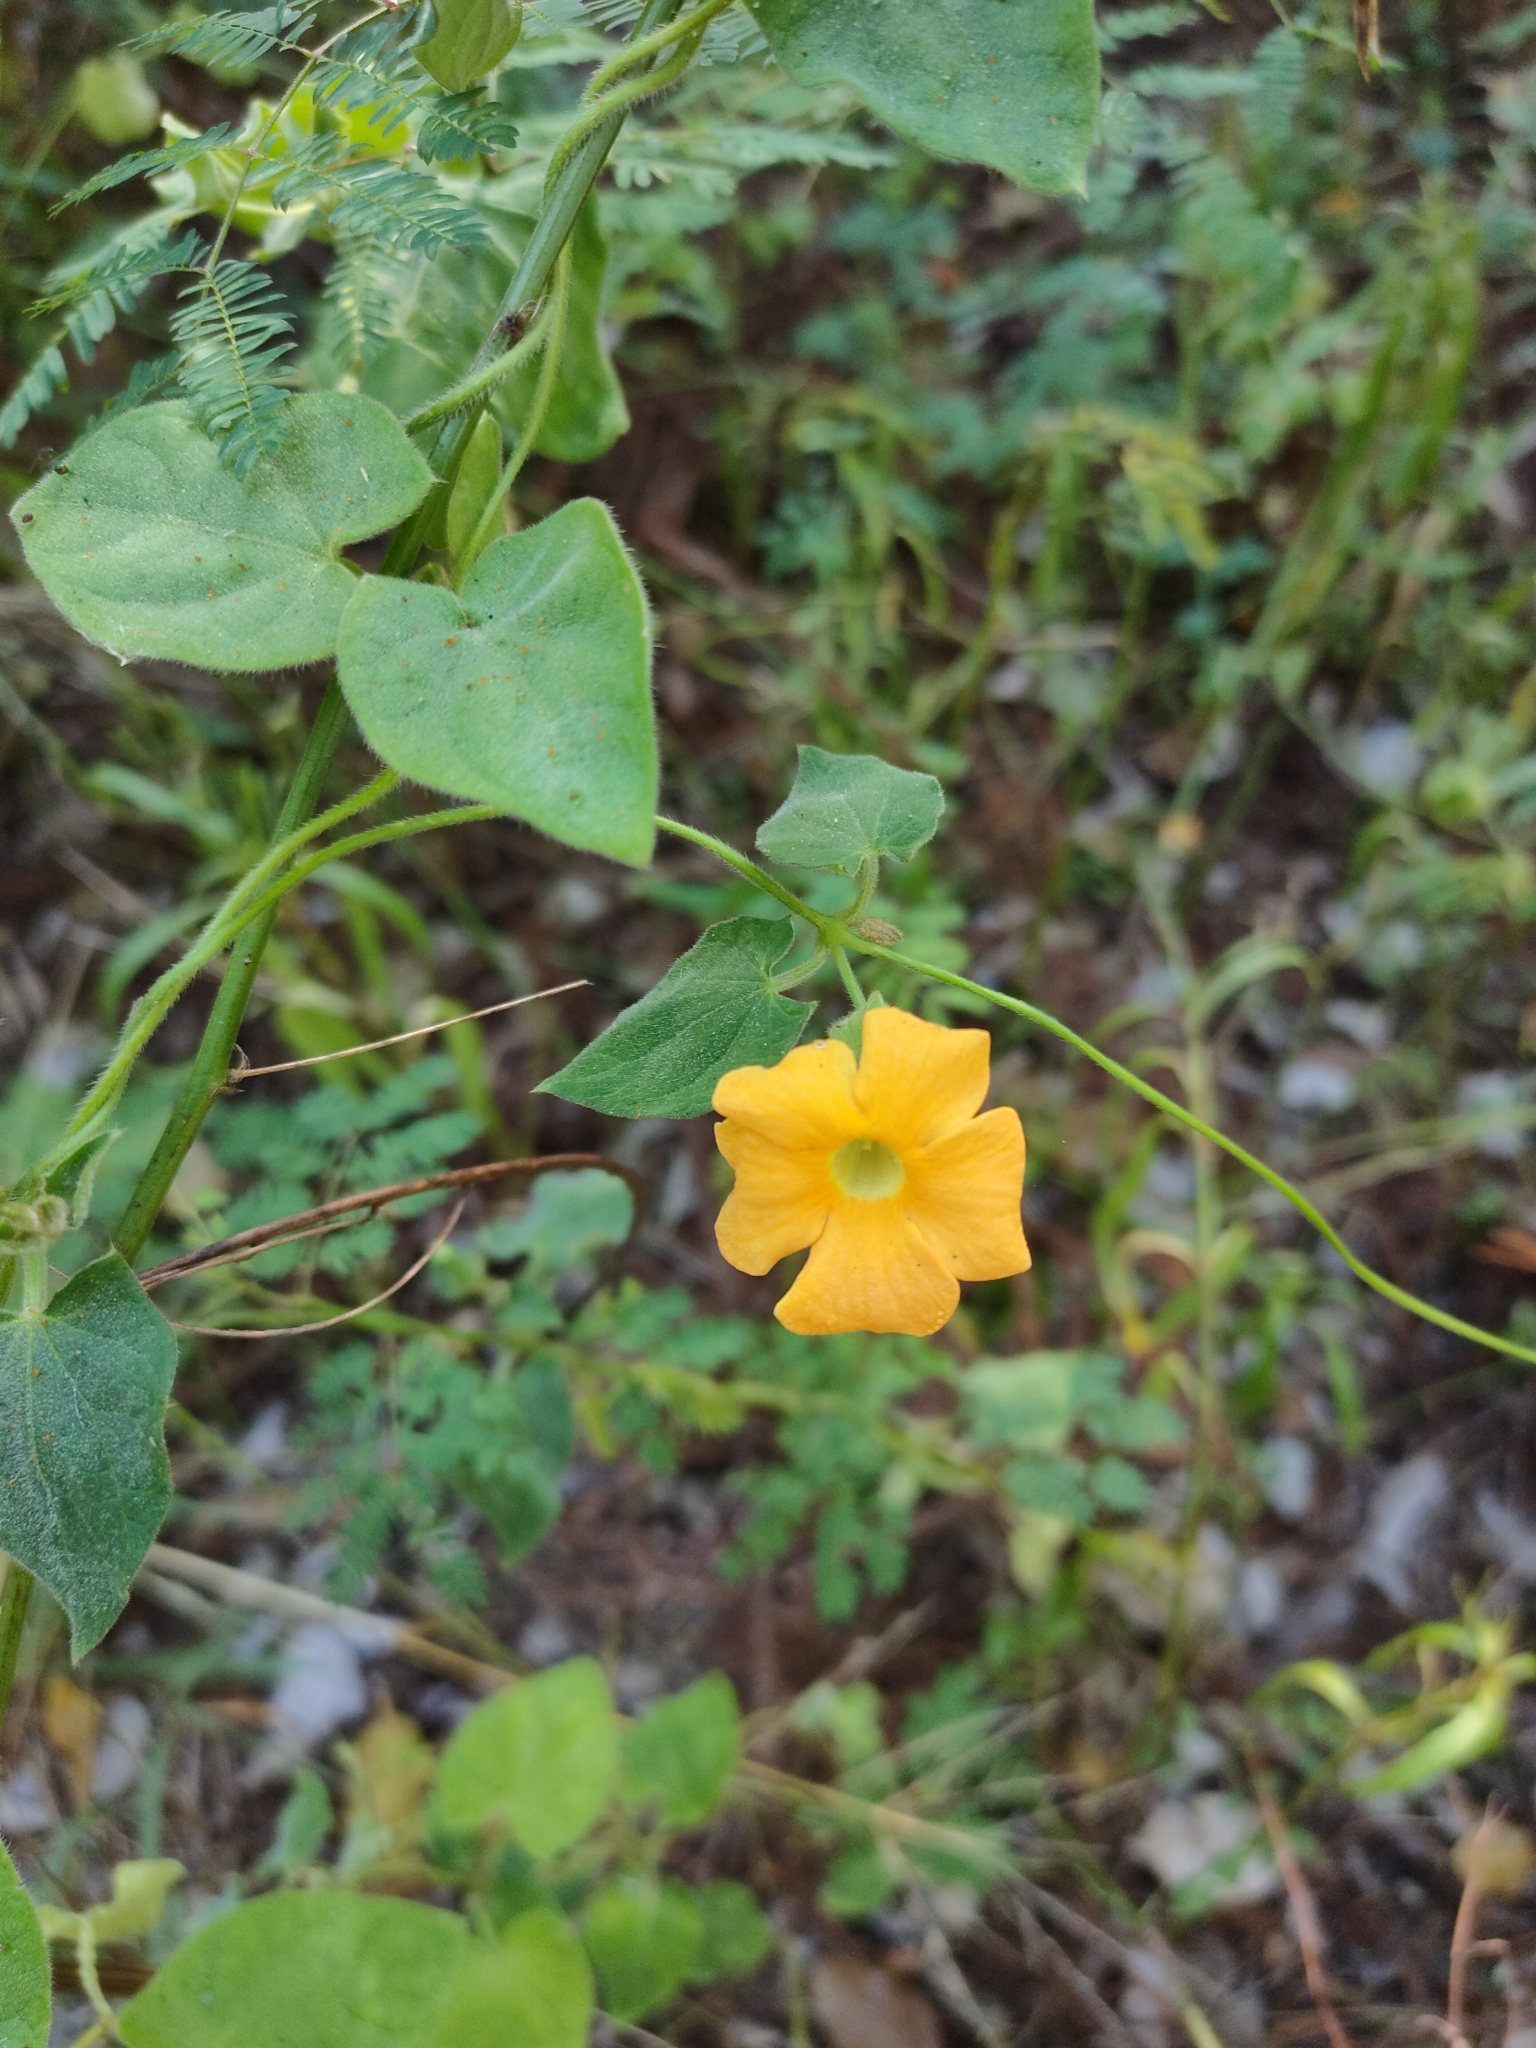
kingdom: Plantae
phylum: Tracheophyta
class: Magnoliopsida
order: Lamiales
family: Acanthaceae
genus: Thunbergia
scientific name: Thunbergia alata
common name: Blackeyed susan vine
